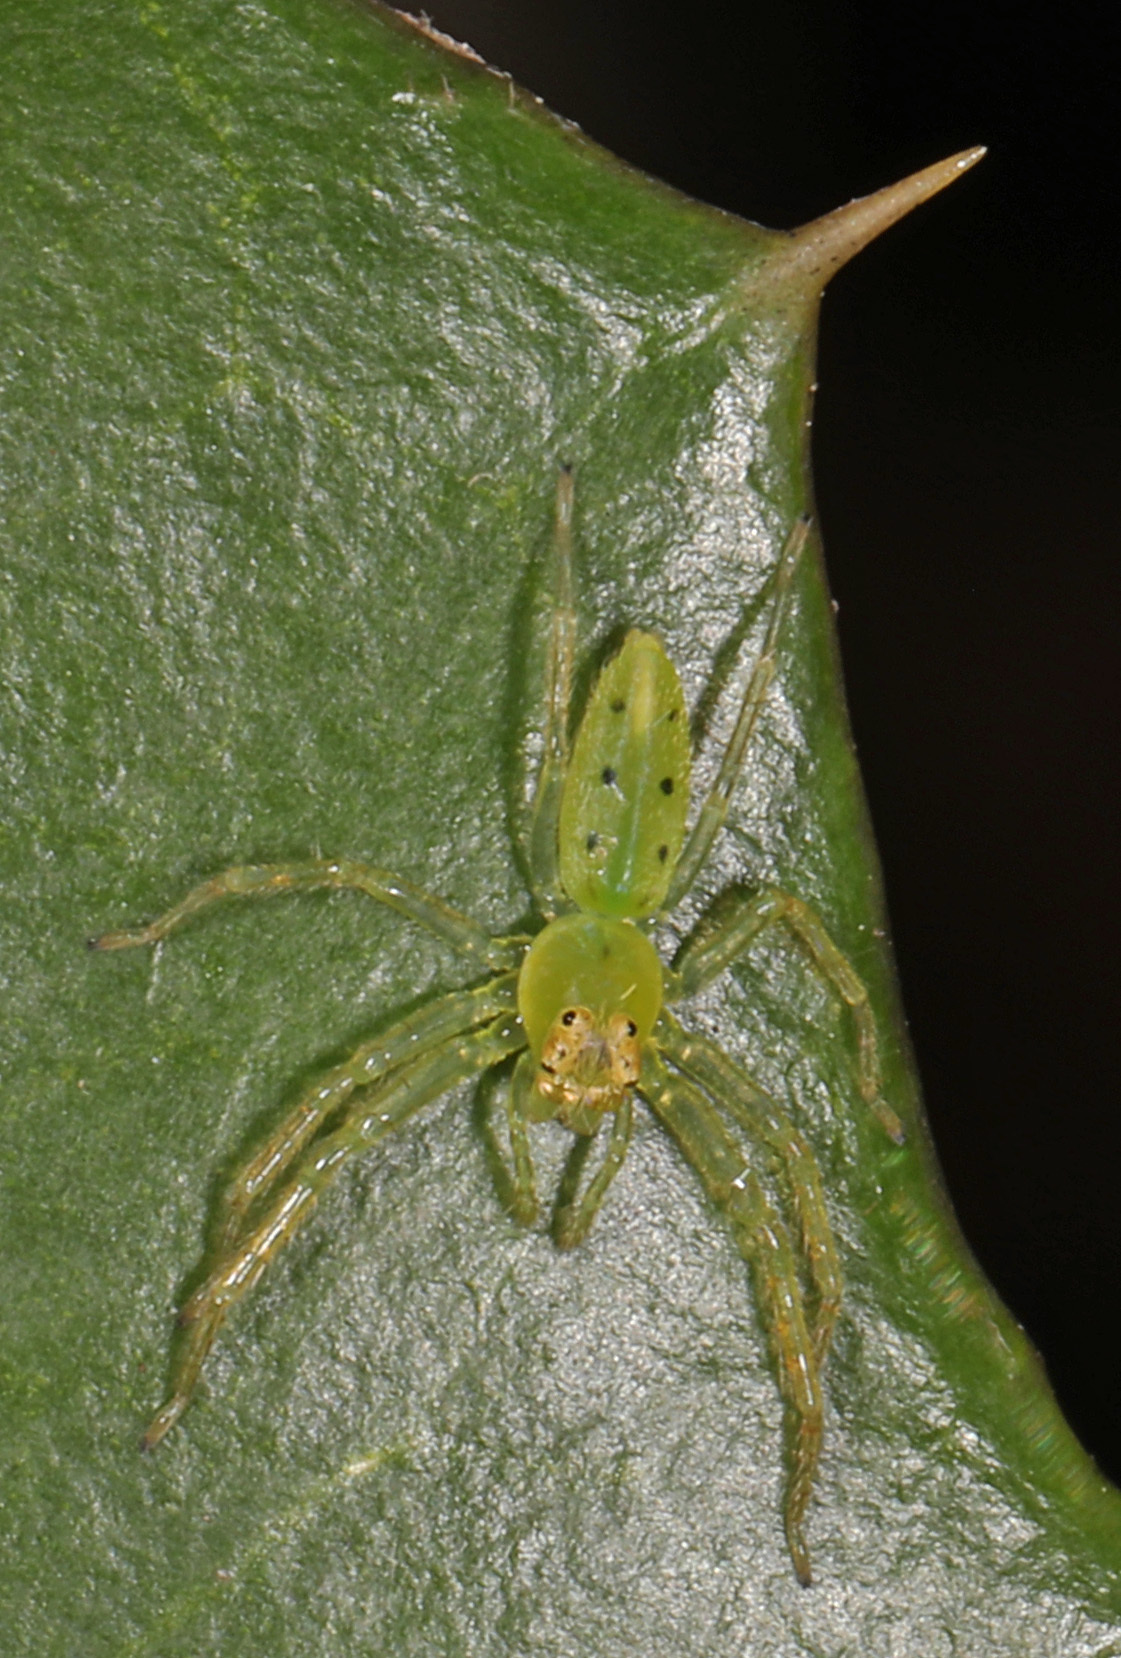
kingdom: Animalia
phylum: Arthropoda
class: Arachnida
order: Araneae
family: Salticidae
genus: Lyssomanes
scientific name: Lyssomanes viridis
